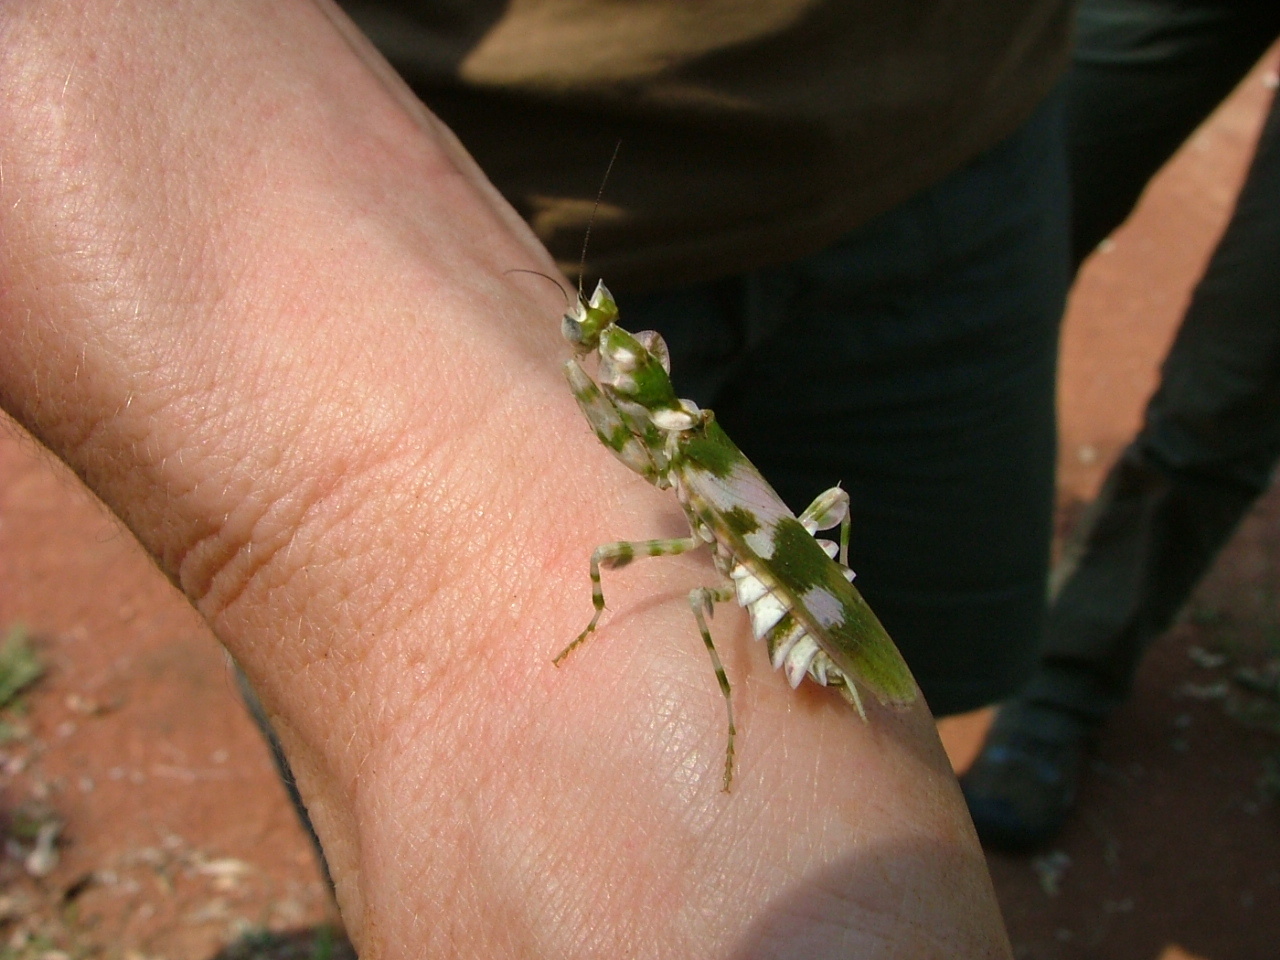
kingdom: Animalia
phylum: Arthropoda
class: Insecta
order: Mantodea
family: Galinthiadidae
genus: Harpagomantis
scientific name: Harpagomantis tricolor
